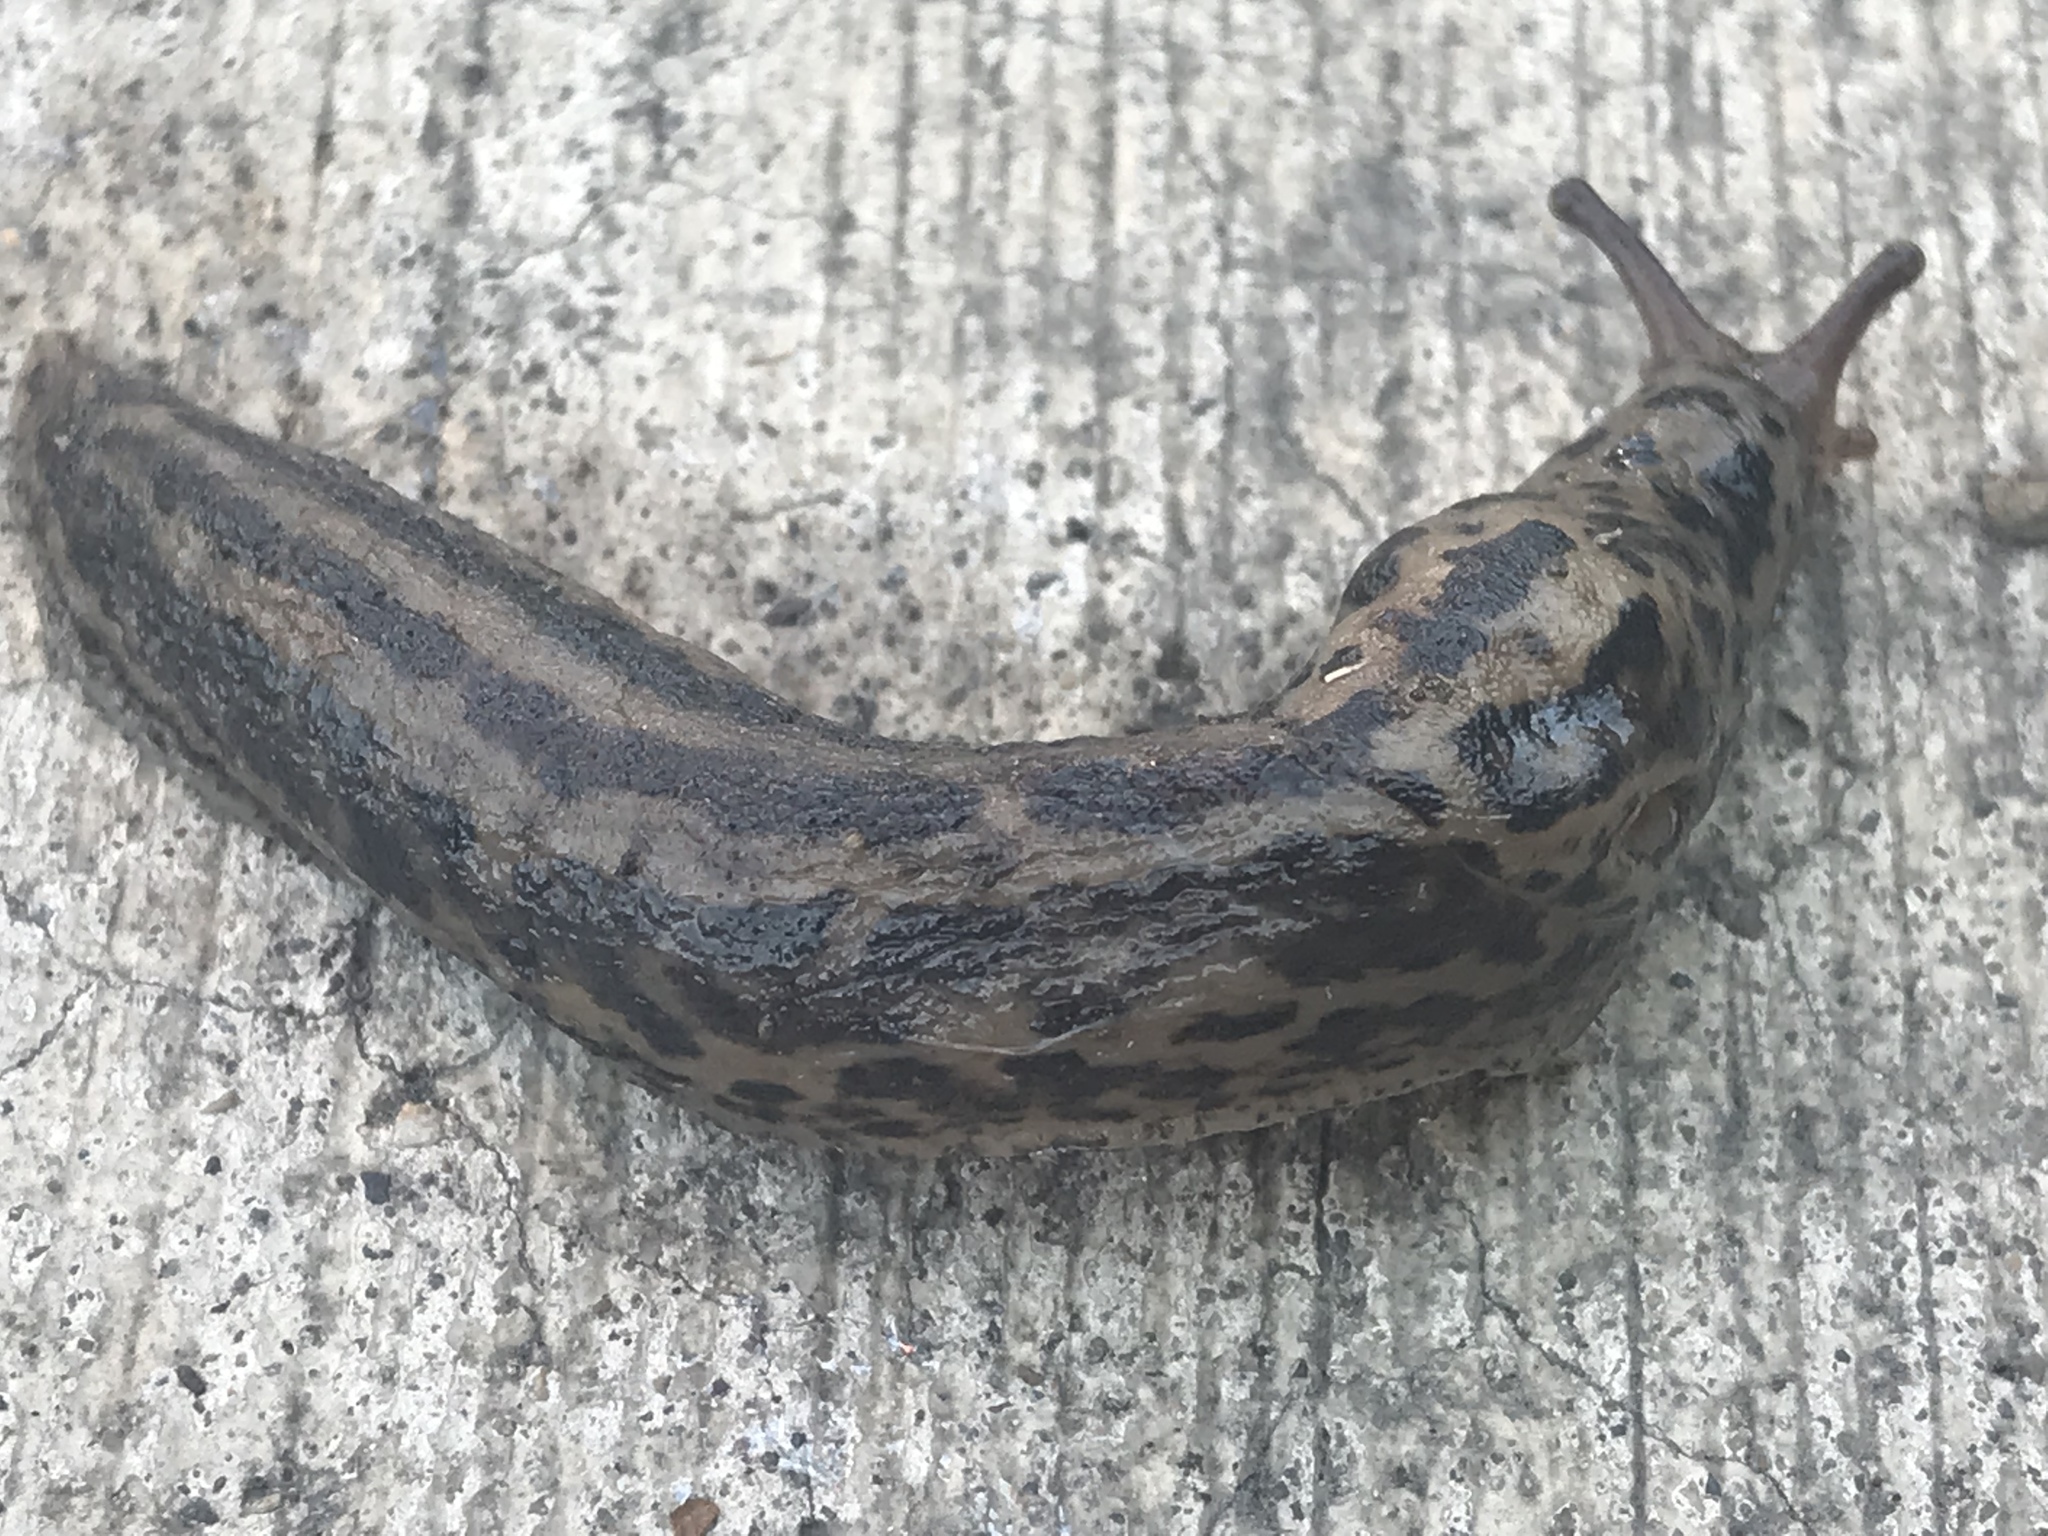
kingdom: Animalia
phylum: Mollusca
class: Gastropoda
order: Stylommatophora
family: Limacidae
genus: Limax
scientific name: Limax maximus
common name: Great grey slug
